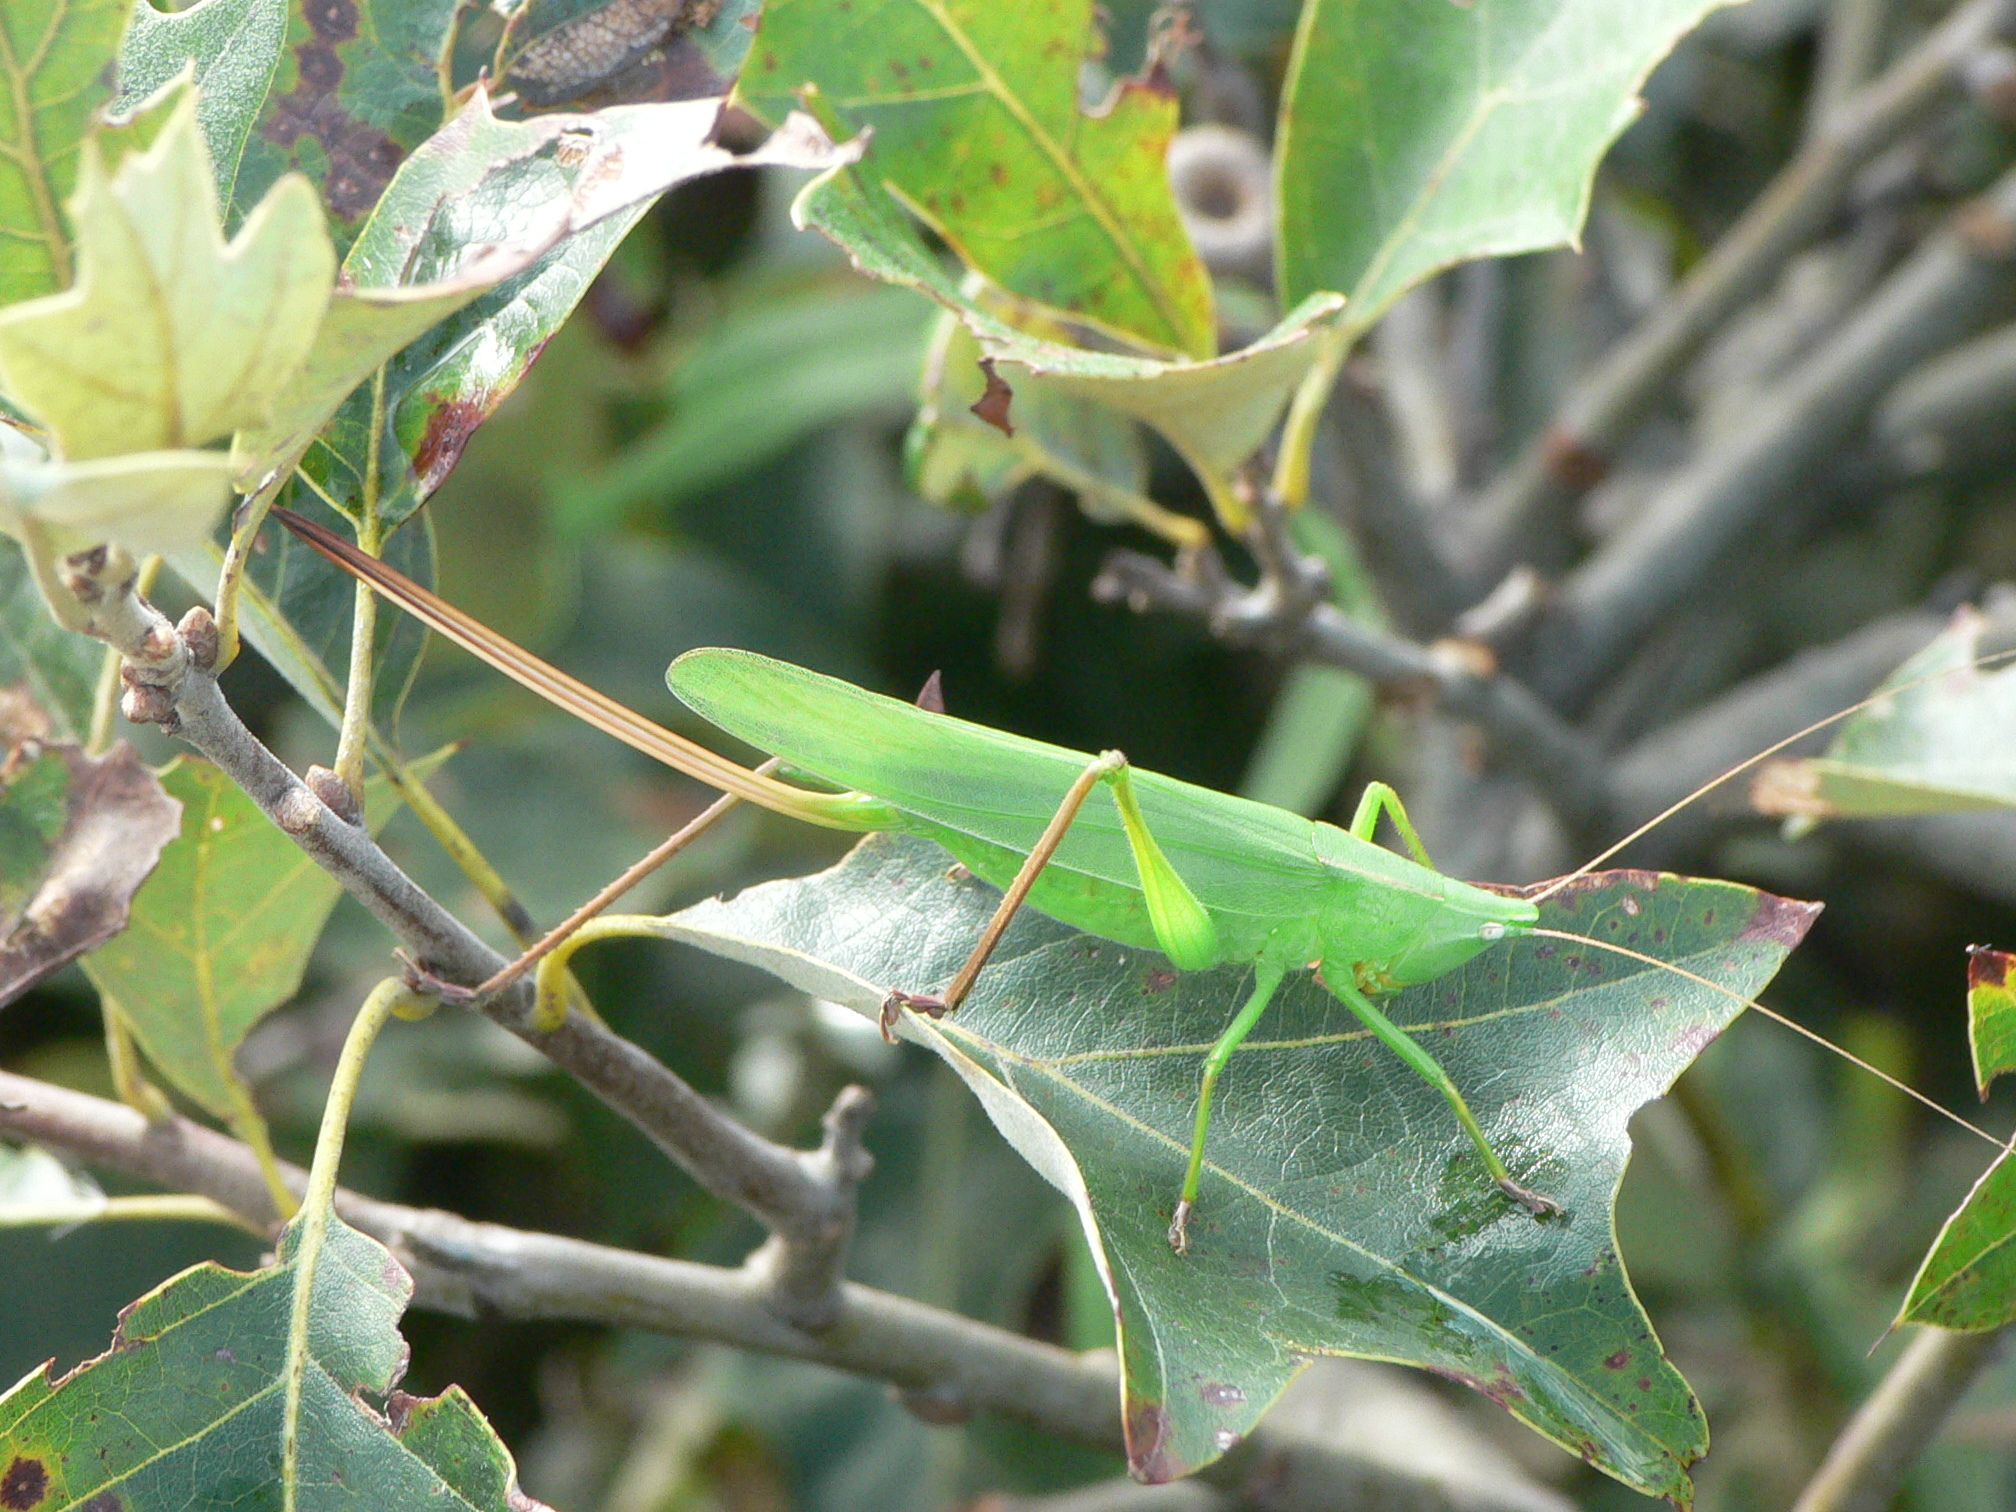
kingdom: Animalia
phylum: Arthropoda
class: Insecta
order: Orthoptera
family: Tettigoniidae
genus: Neoconocephalus
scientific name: Neoconocephalus retusus
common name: Round-tipped conehead
